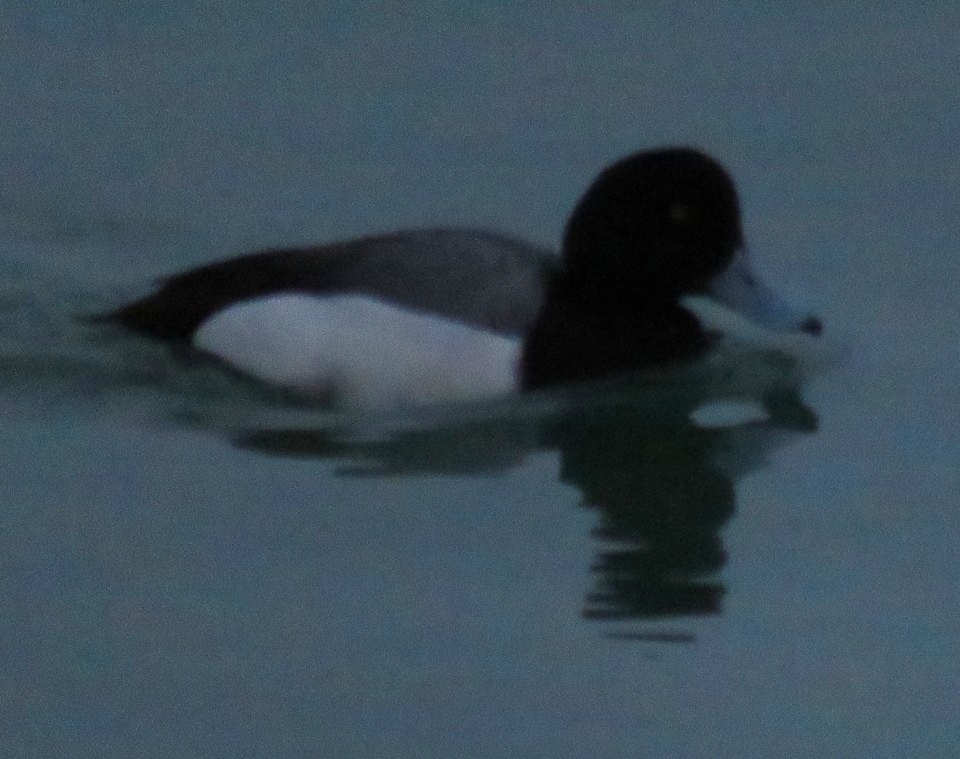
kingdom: Animalia
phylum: Chordata
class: Aves
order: Anseriformes
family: Anatidae
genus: Aythya
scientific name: Aythya marila
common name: Greater scaup
